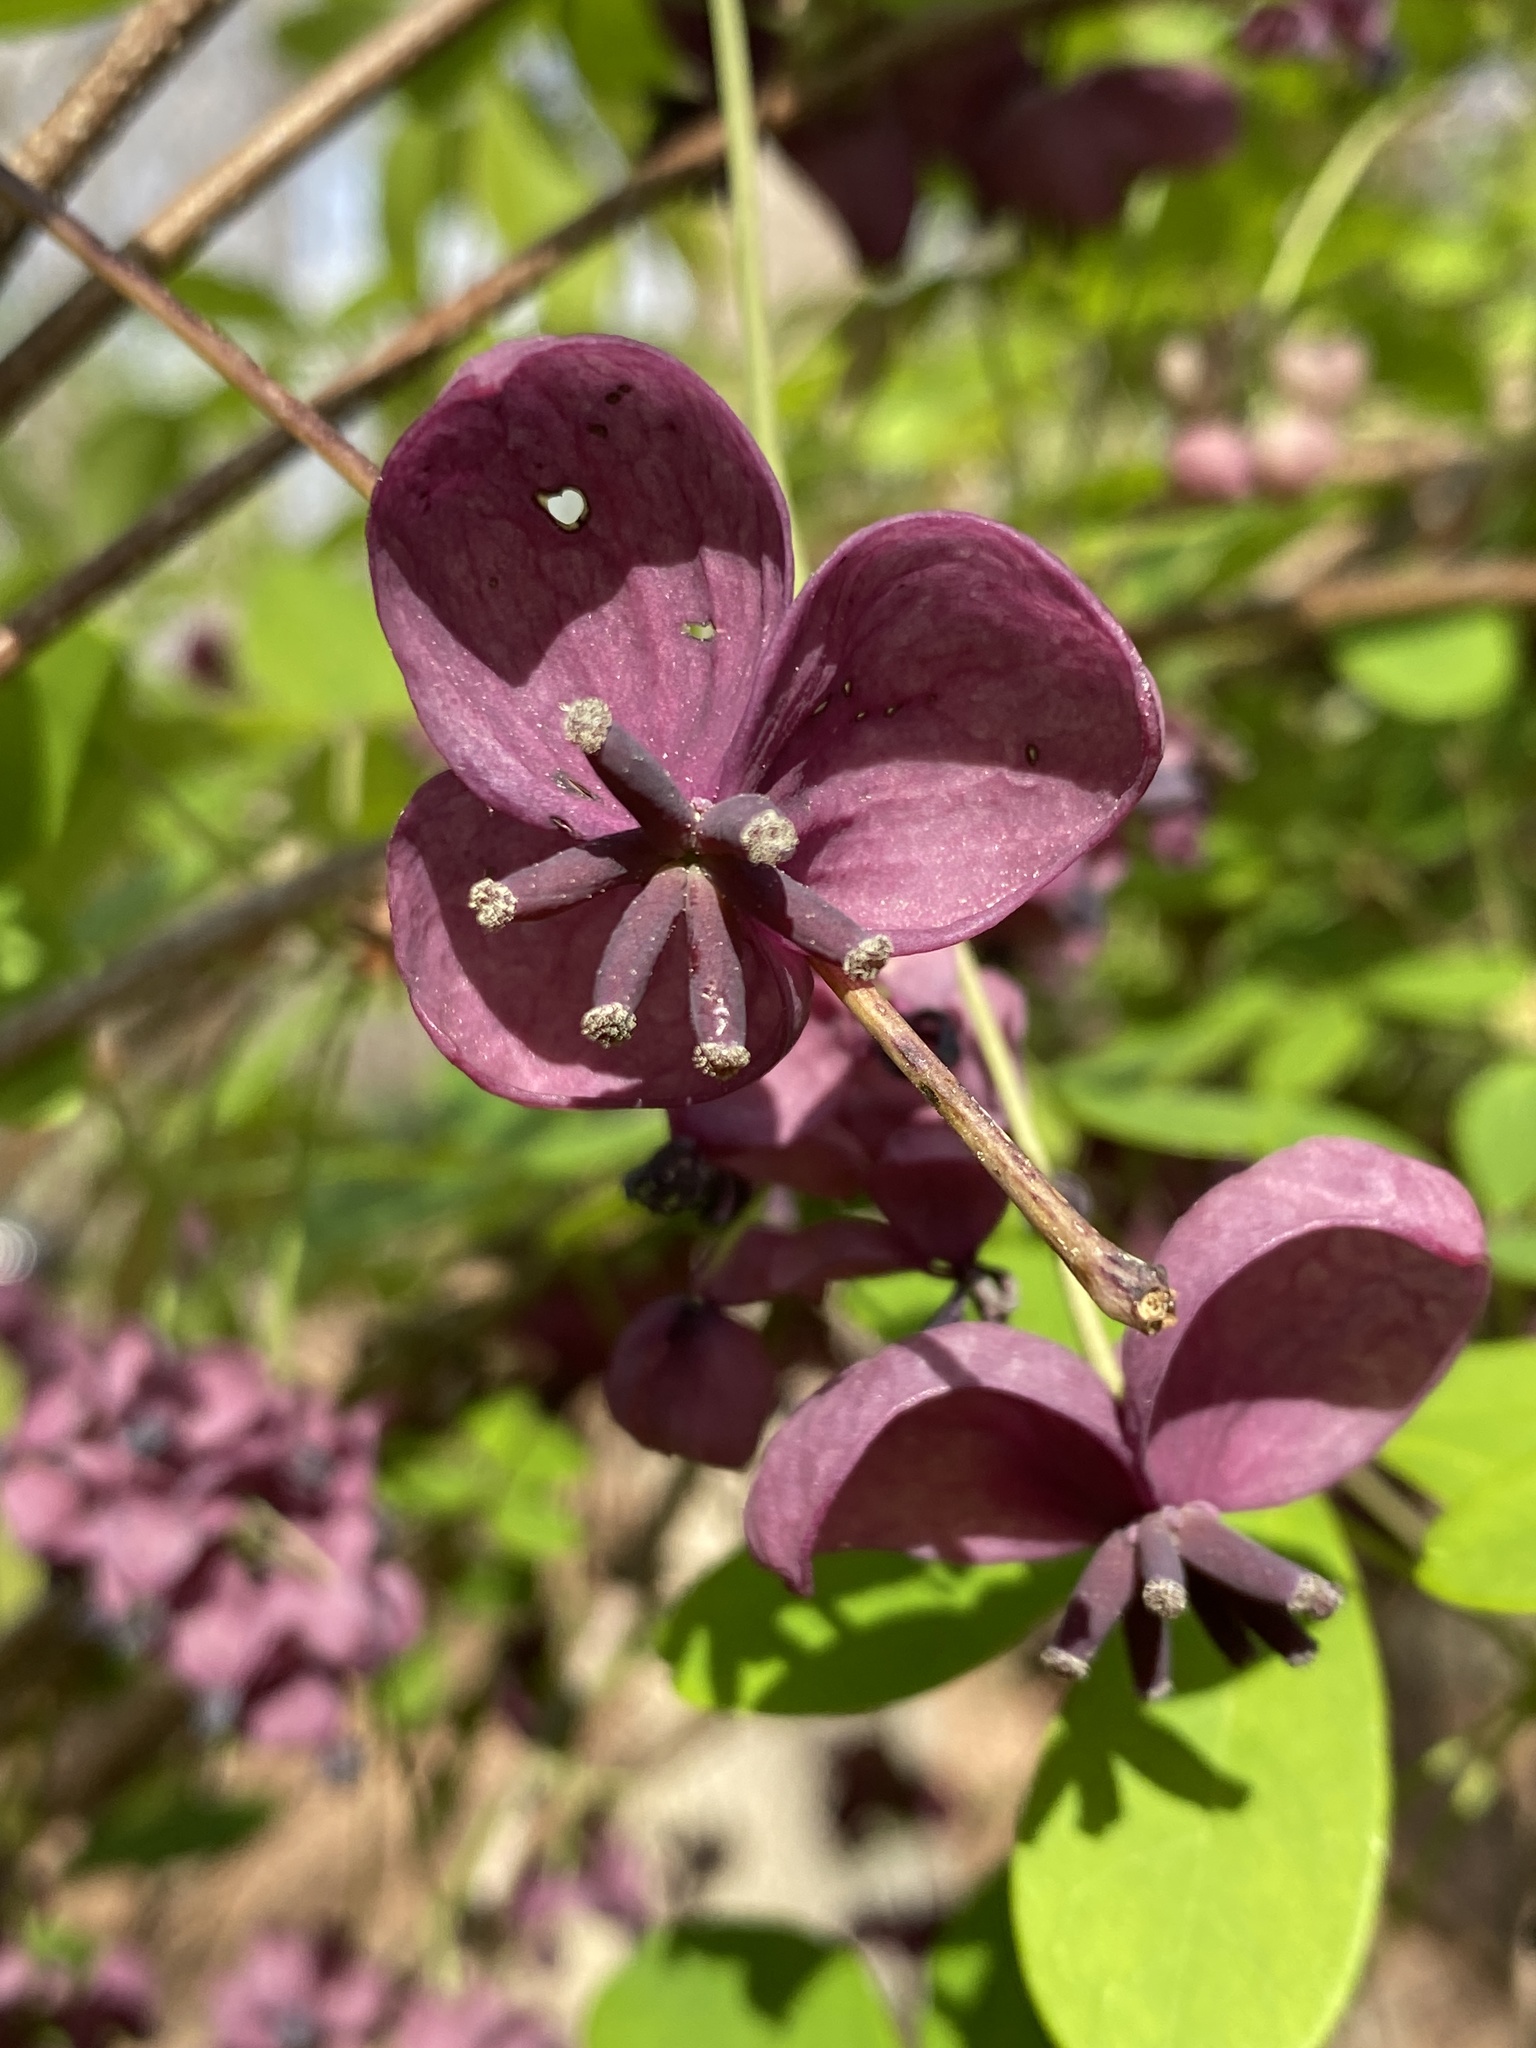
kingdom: Plantae
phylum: Tracheophyta
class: Magnoliopsida
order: Ranunculales
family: Lardizabalaceae
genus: Akebia
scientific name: Akebia quinata
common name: Five-leaf akebia
